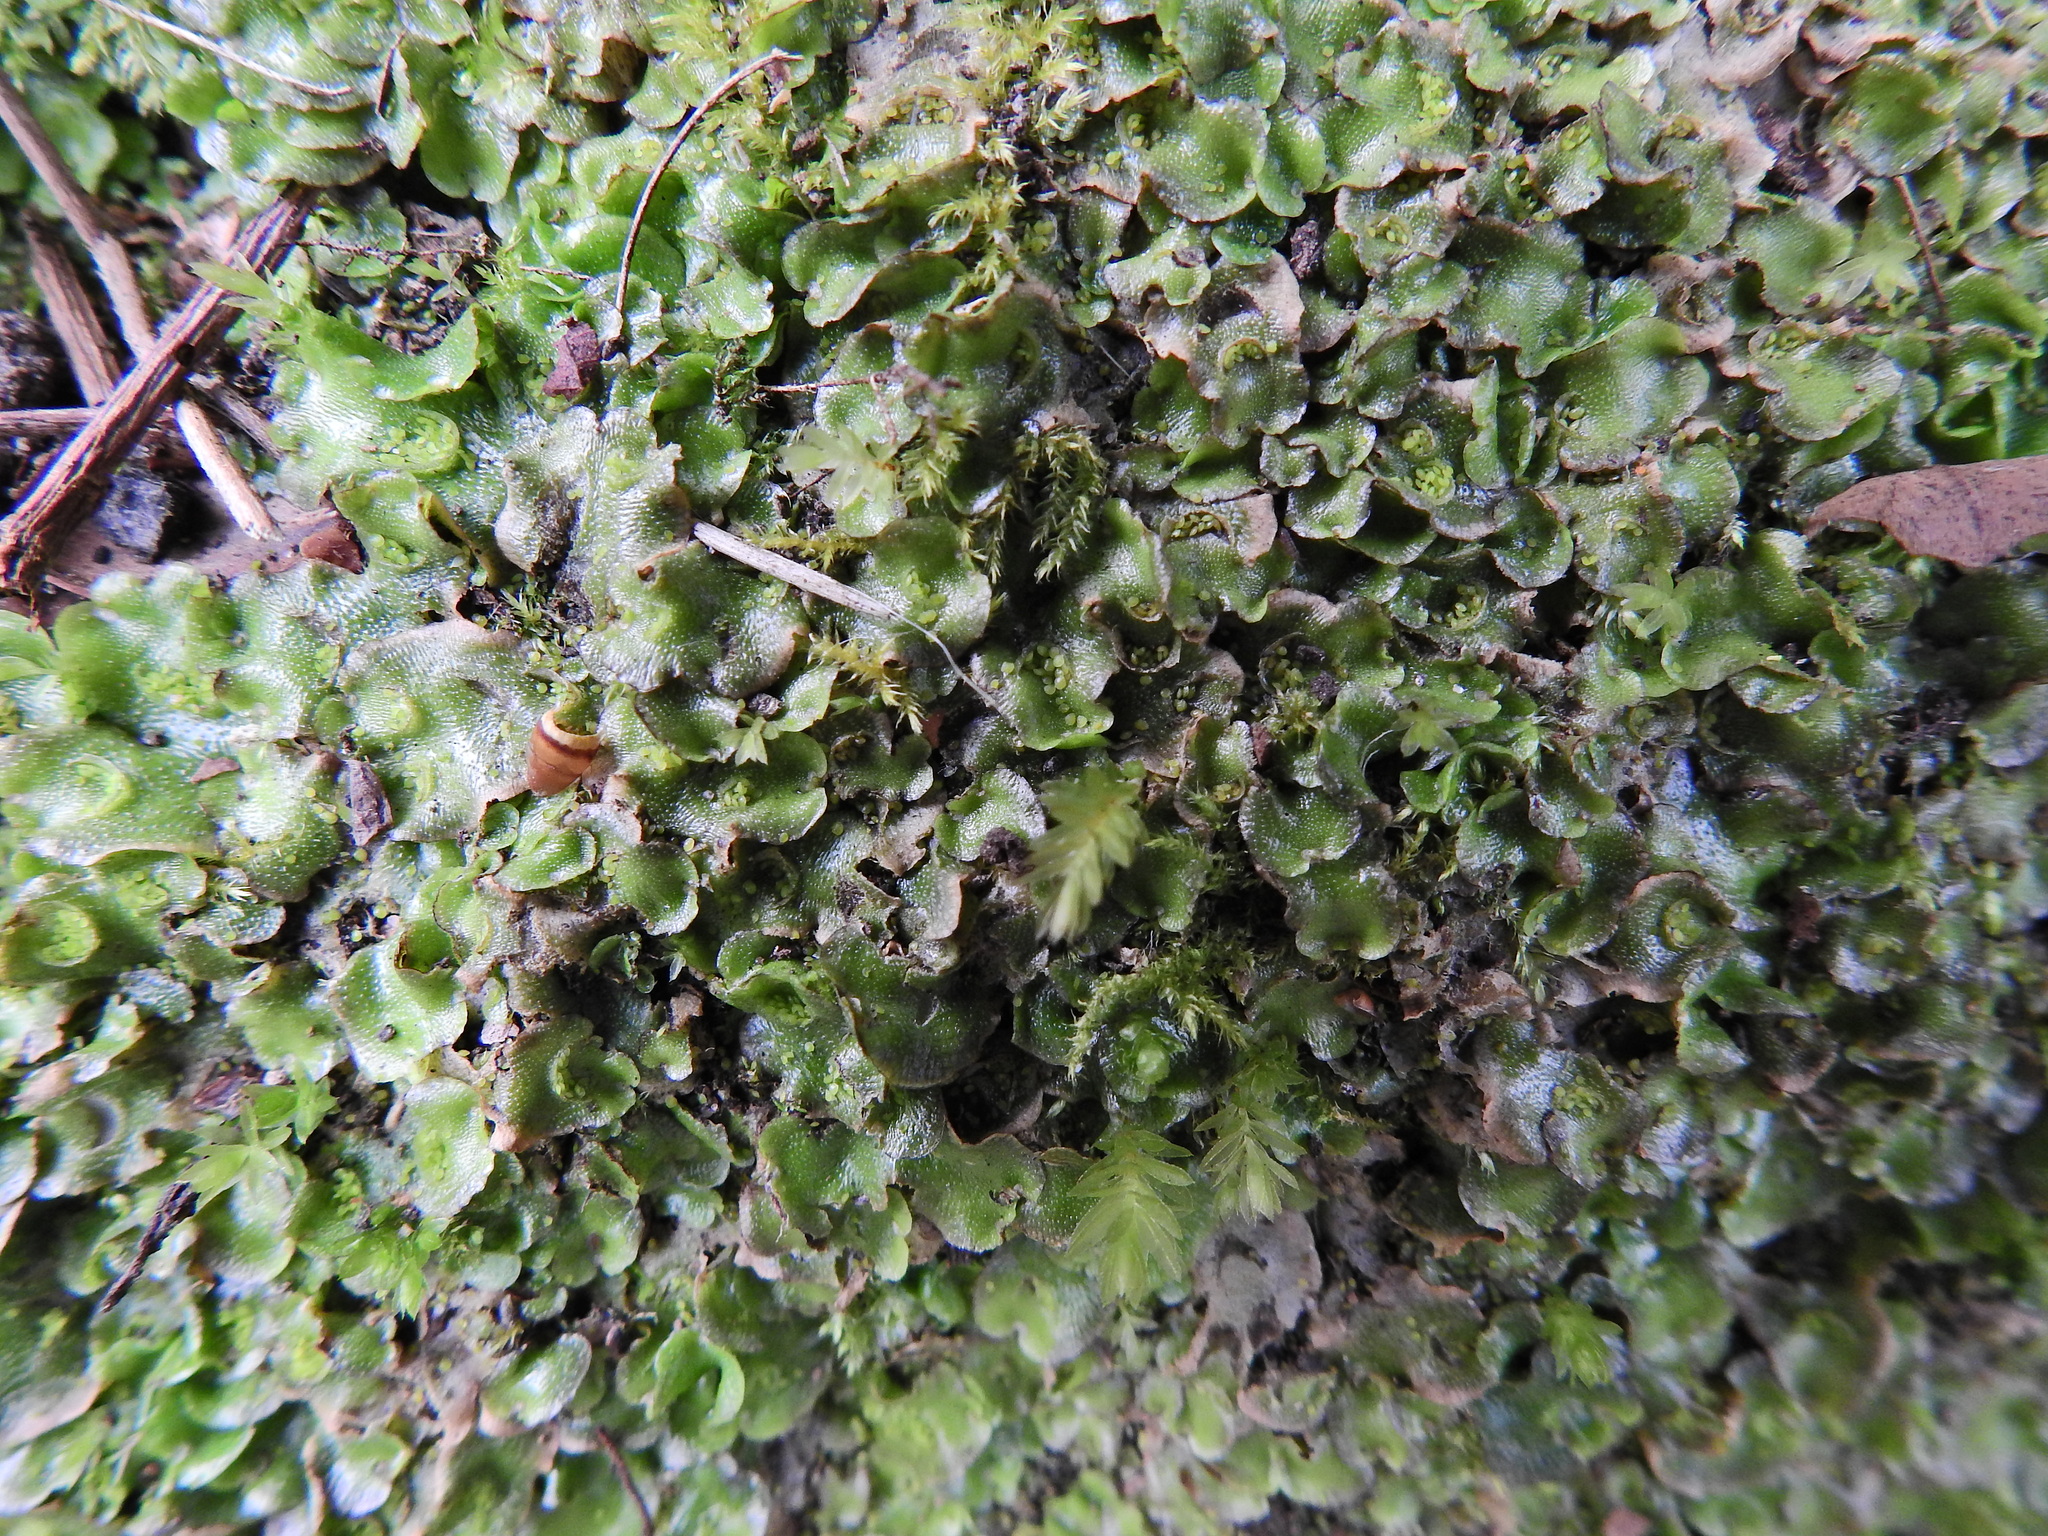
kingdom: Plantae
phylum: Marchantiophyta
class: Marchantiopsida
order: Lunulariales
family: Lunulariaceae
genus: Lunularia
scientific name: Lunularia cruciata
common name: Crescent-cup liverwort
